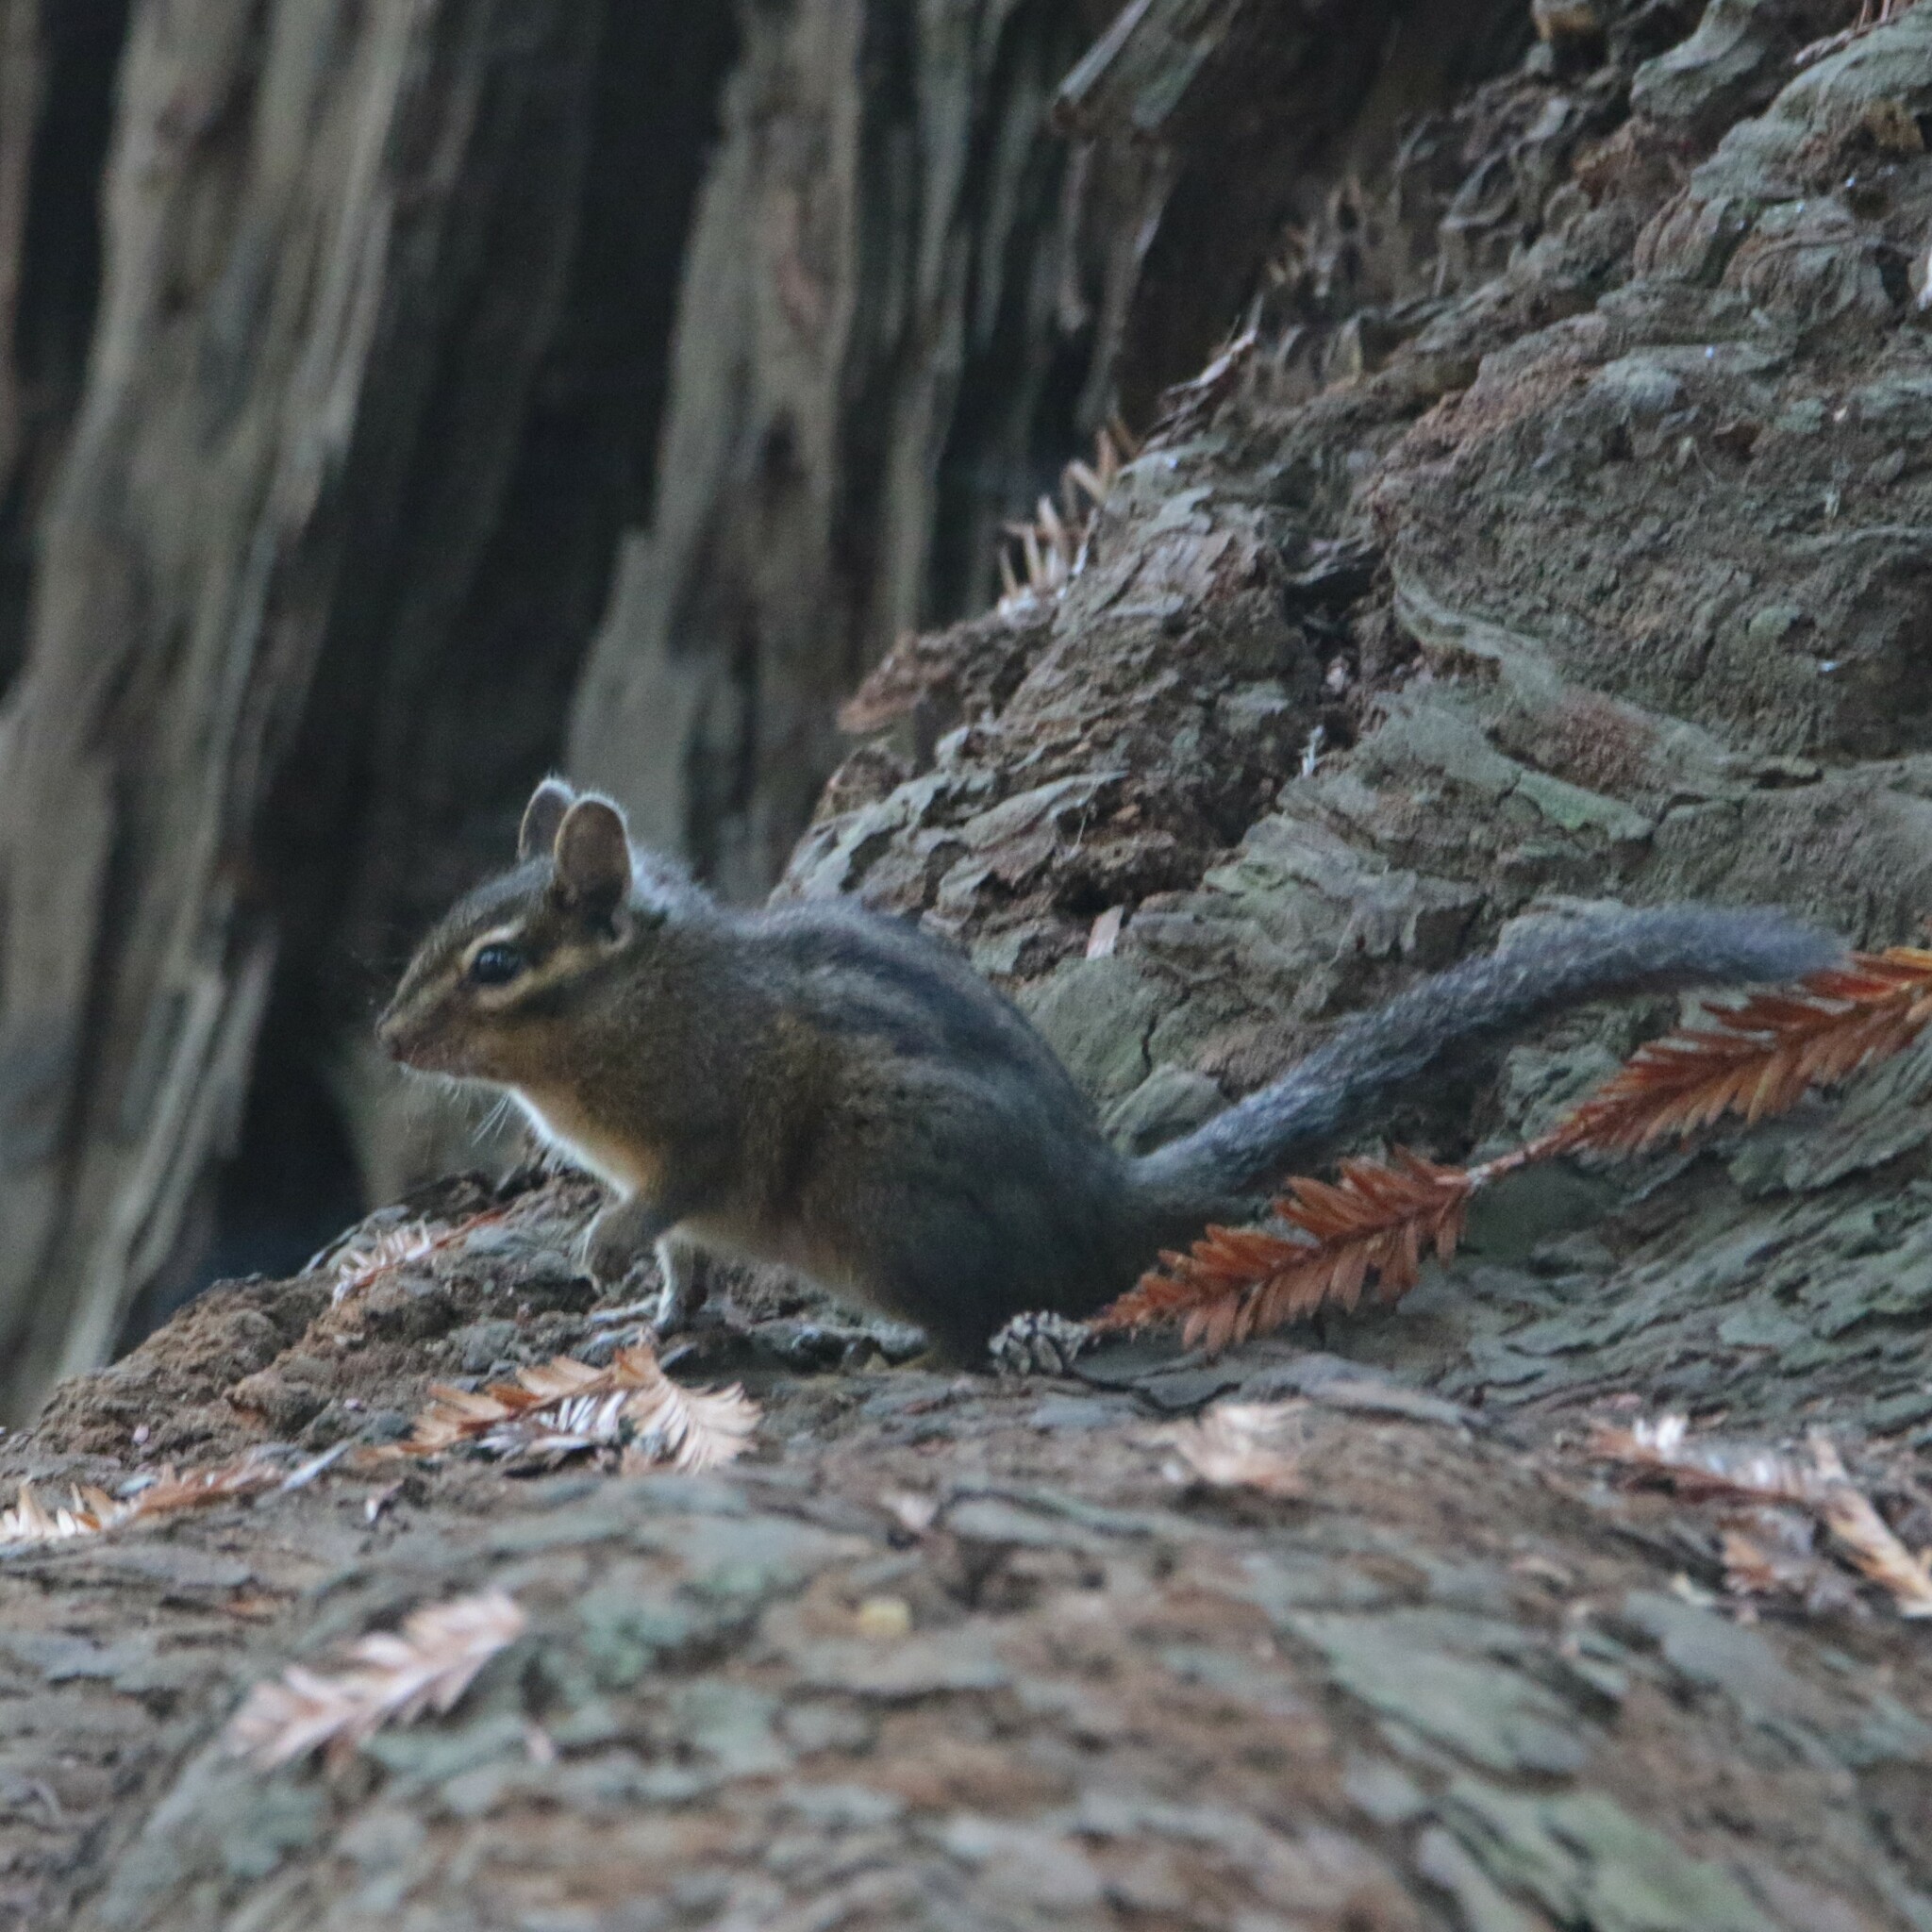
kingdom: Animalia
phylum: Chordata
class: Mammalia
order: Rodentia
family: Sciuridae
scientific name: Sciuridae
